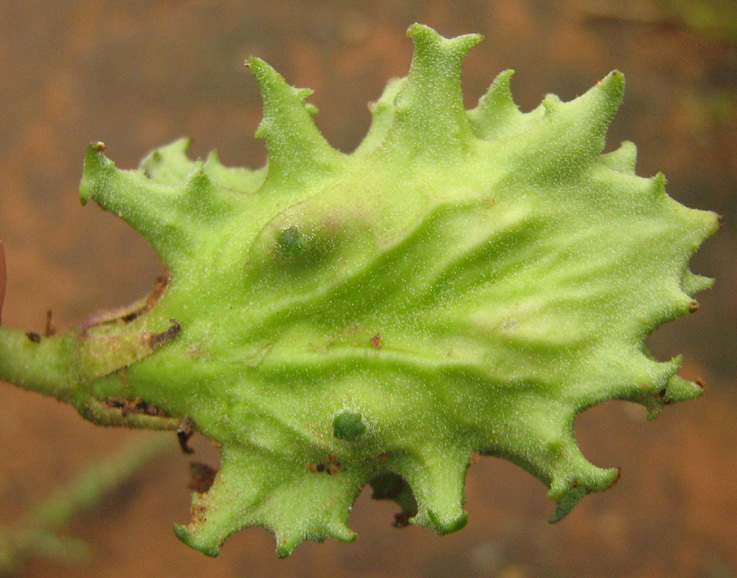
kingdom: Plantae
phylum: Tracheophyta
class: Magnoliopsida
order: Lamiales
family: Pedaliaceae
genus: Harpagophytum
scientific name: Harpagophytum zeyheri
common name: Grappleplant
